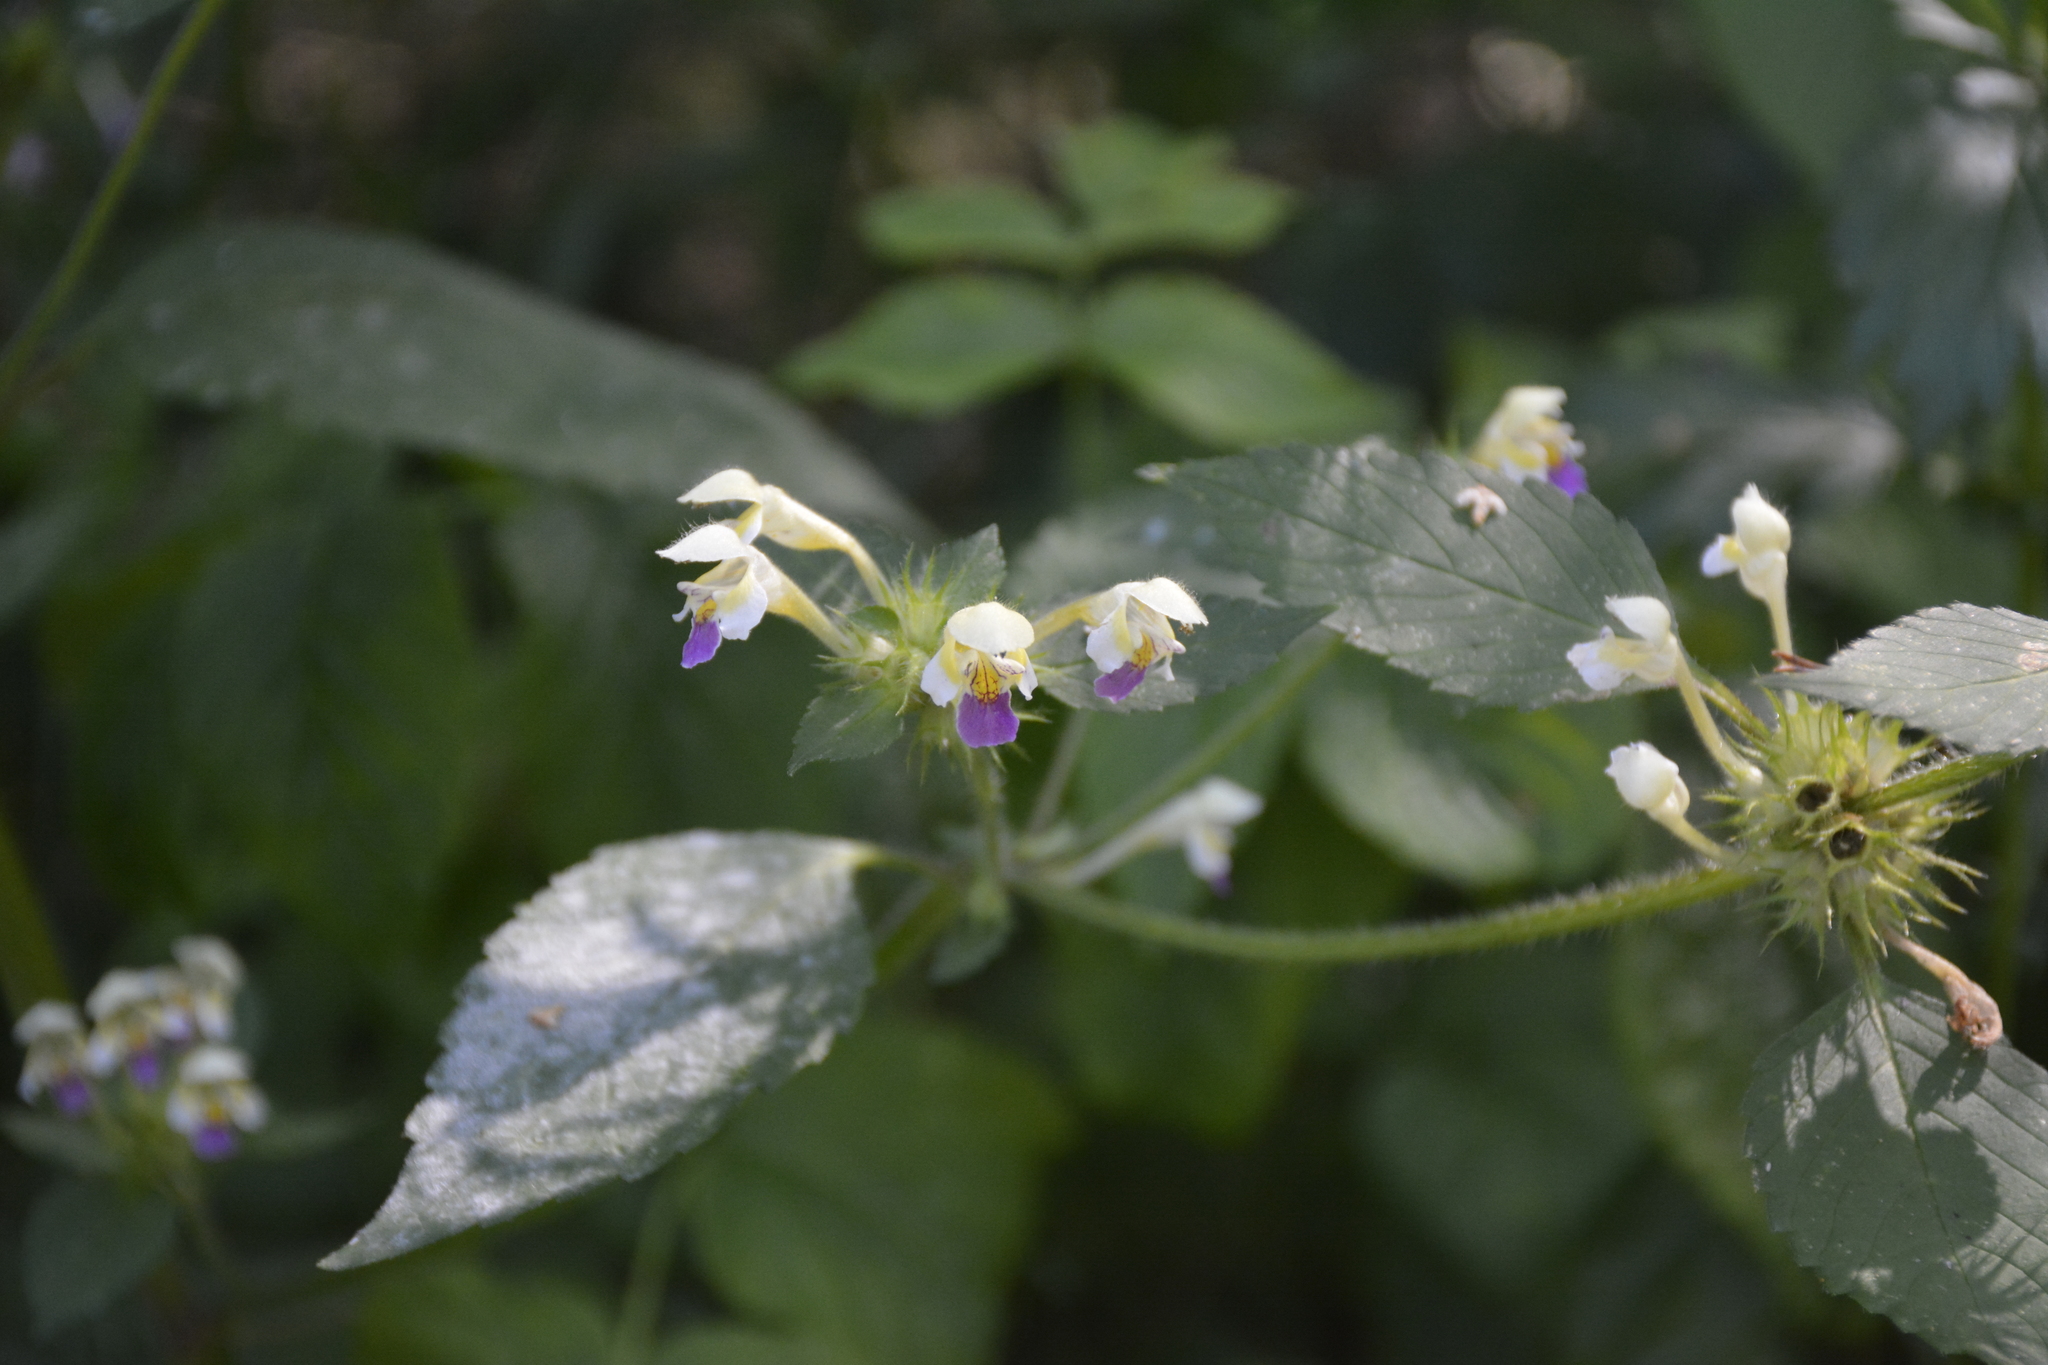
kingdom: Plantae
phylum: Tracheophyta
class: Magnoliopsida
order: Lamiales
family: Lamiaceae
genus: Galeopsis
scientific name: Galeopsis speciosa
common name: Large-flowered hemp-nettle
